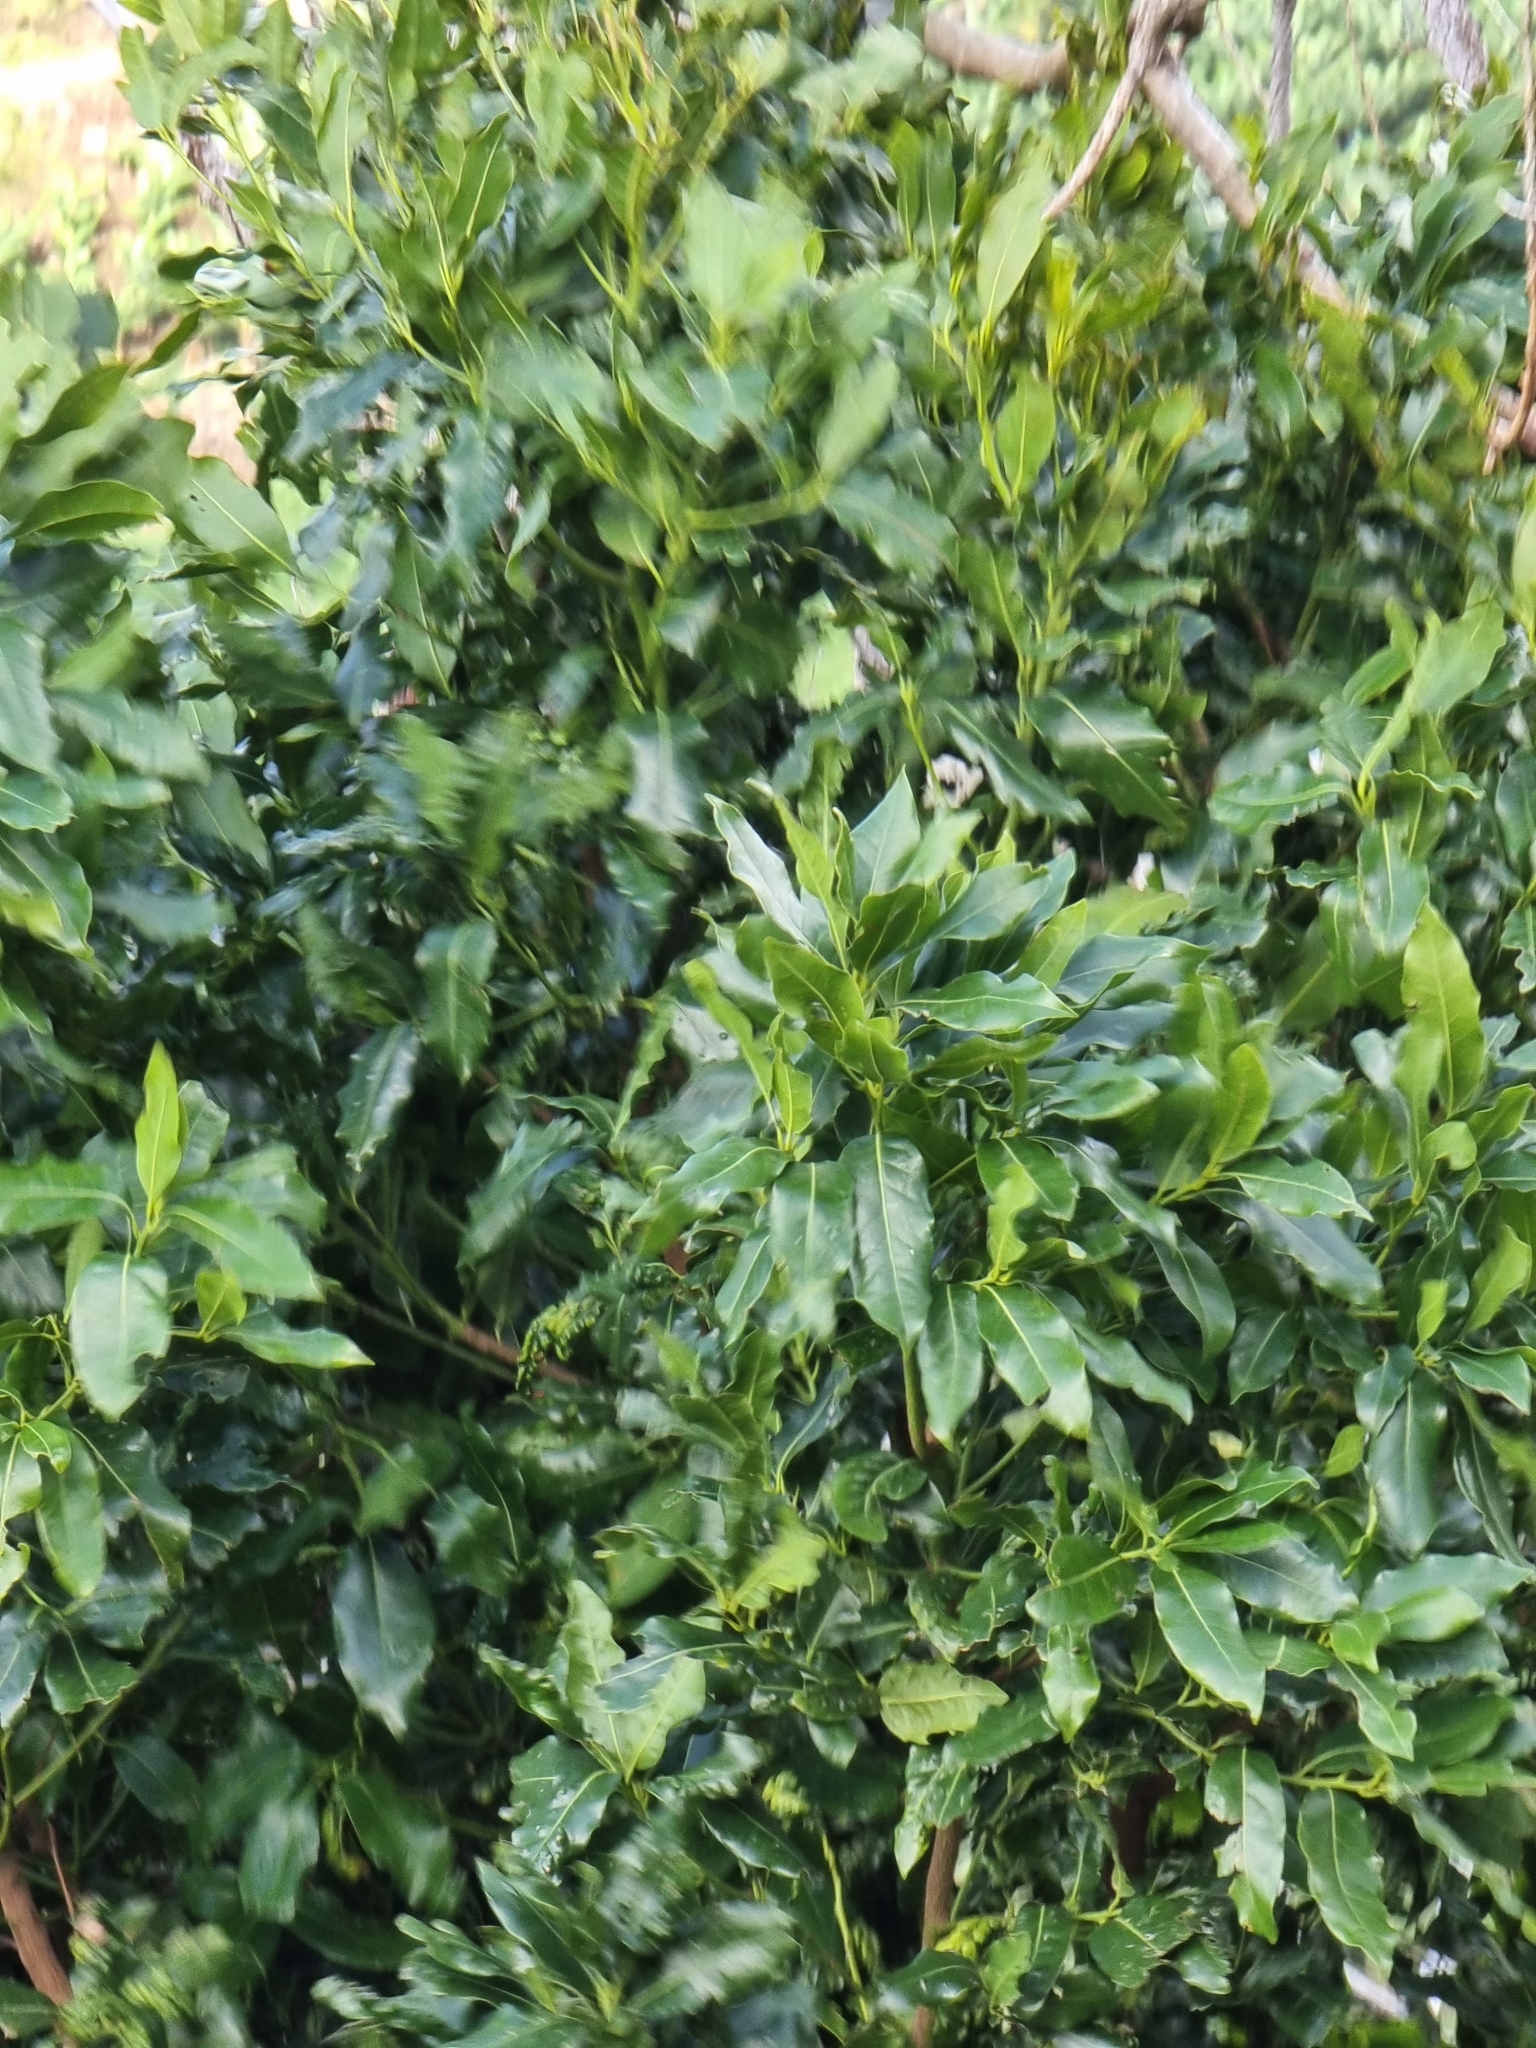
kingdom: Plantae
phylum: Tracheophyta
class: Magnoliopsida
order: Laurales
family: Lauraceae
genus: Apollonias
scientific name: Apollonias barbujana
